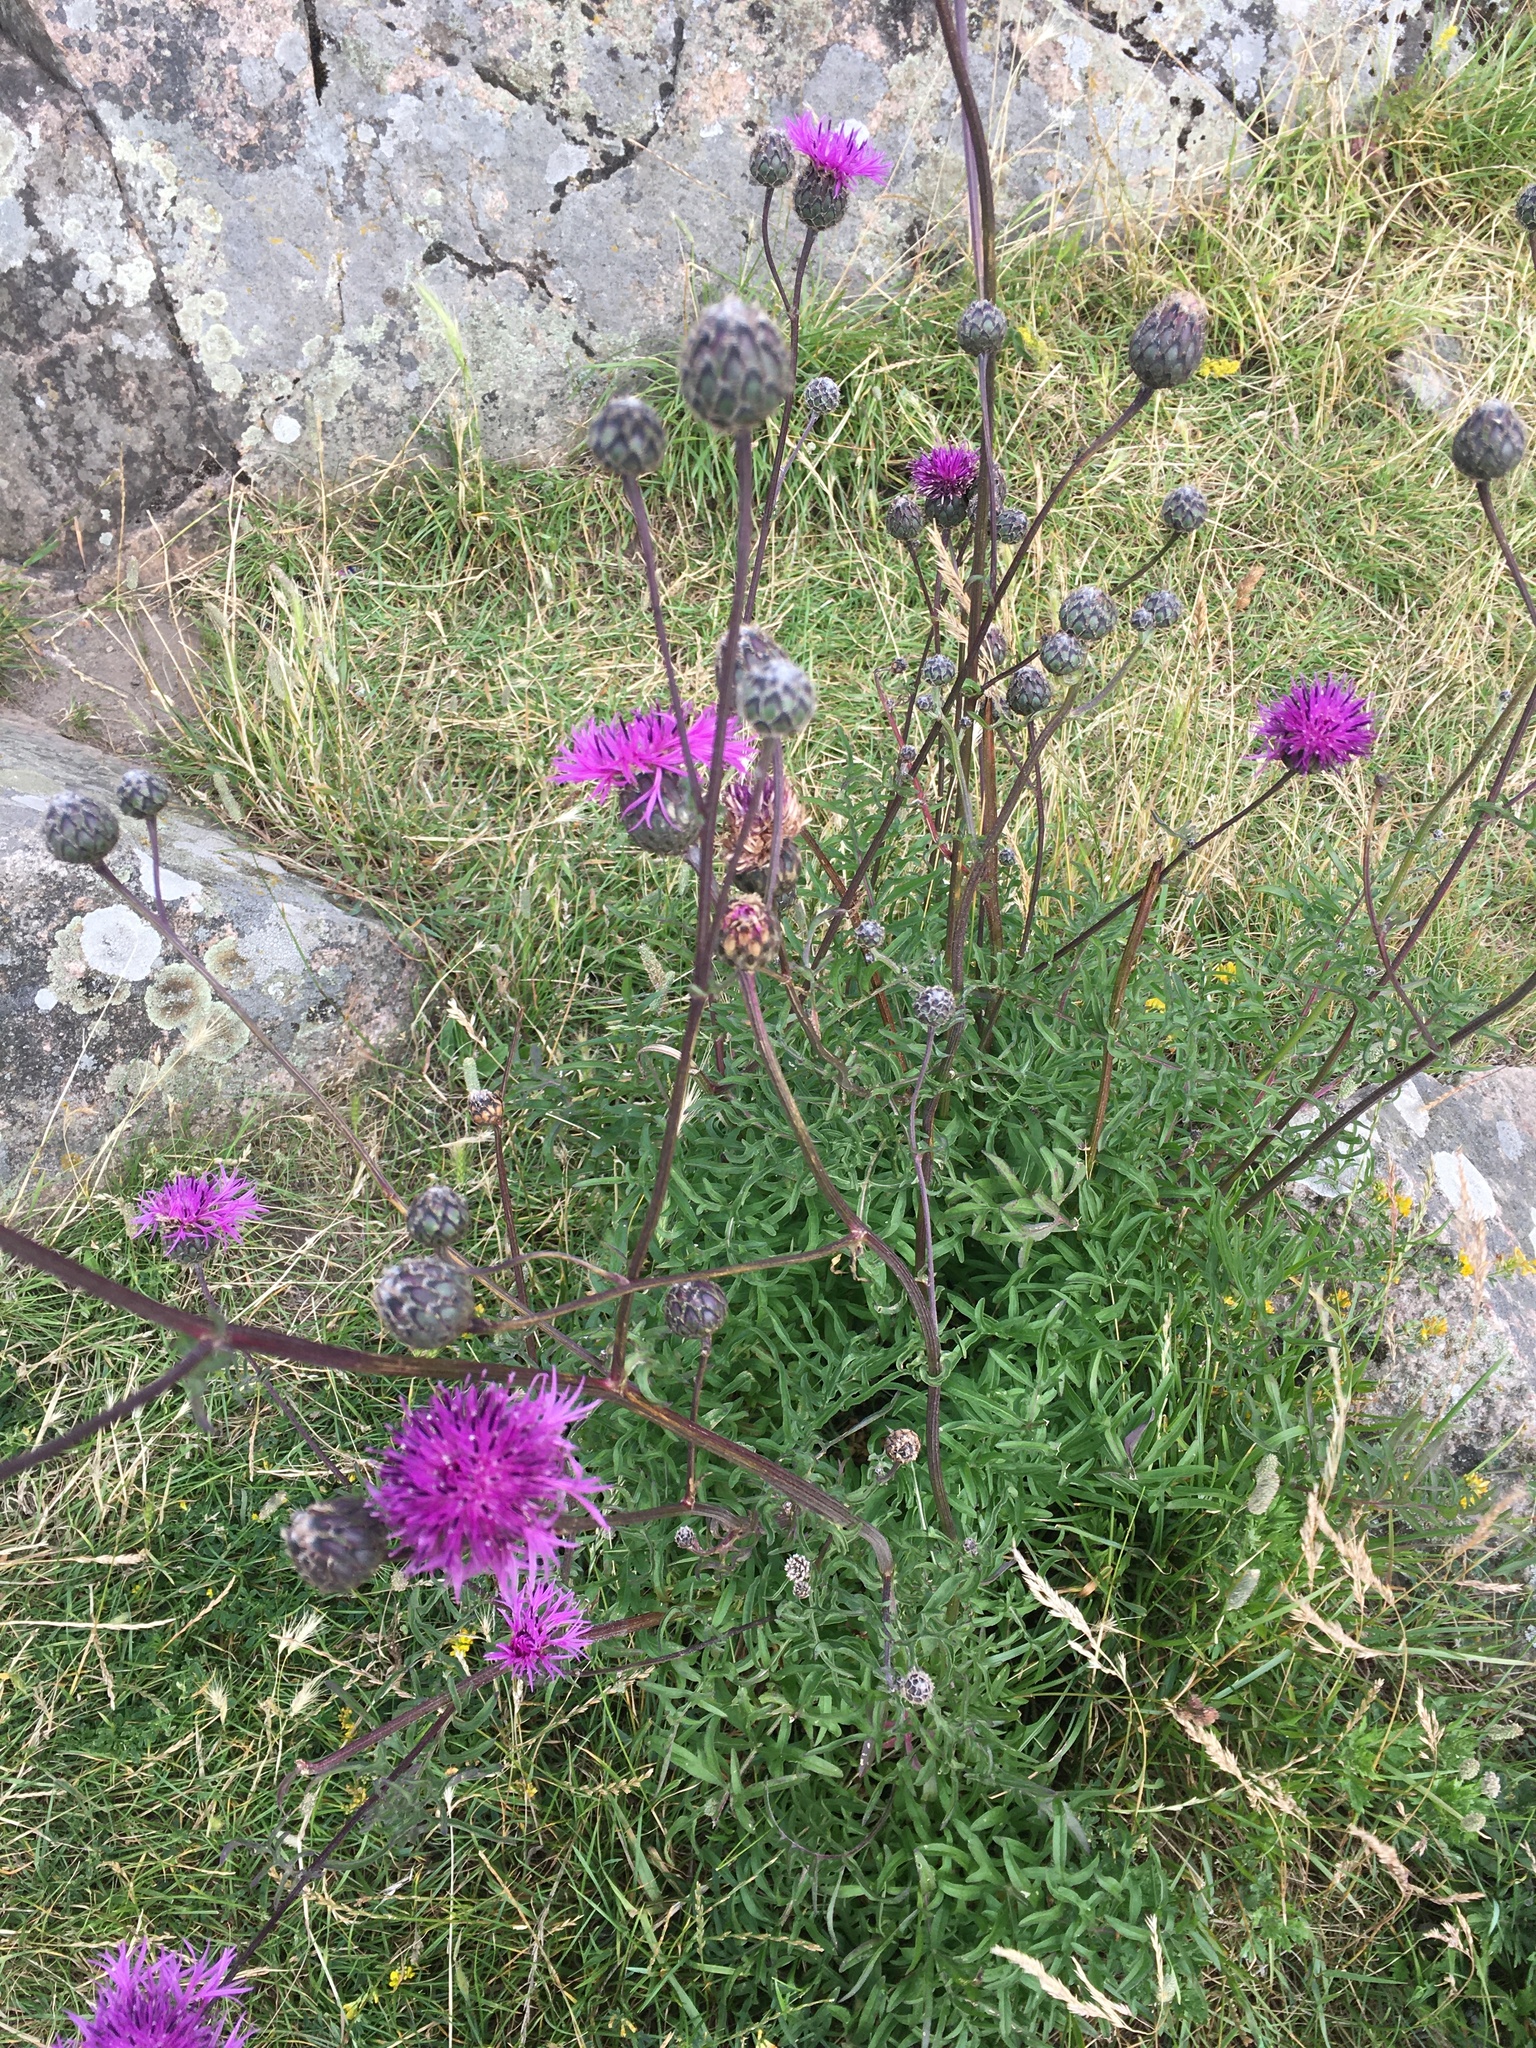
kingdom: Plantae
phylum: Tracheophyta
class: Magnoliopsida
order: Asterales
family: Asteraceae
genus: Centaurea
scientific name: Centaurea scabiosa
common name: Greater knapweed
